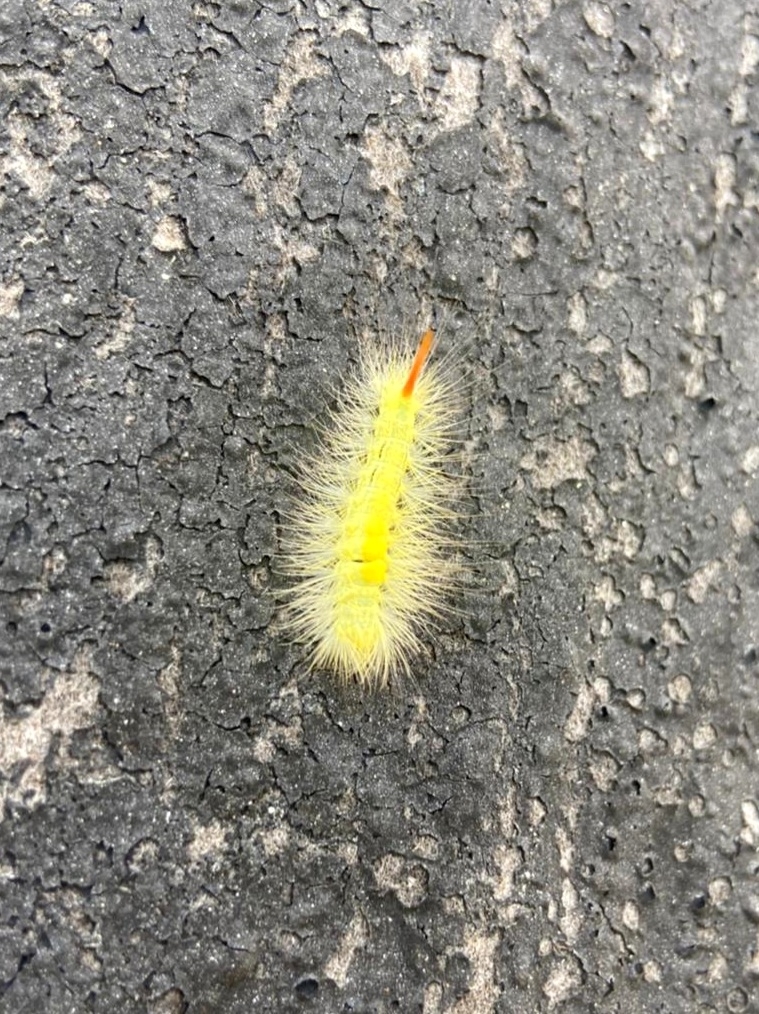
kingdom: Animalia
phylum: Arthropoda
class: Insecta
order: Lepidoptera
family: Erebidae
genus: Calliteara
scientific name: Calliteara pudibunda
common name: Pale tussock
